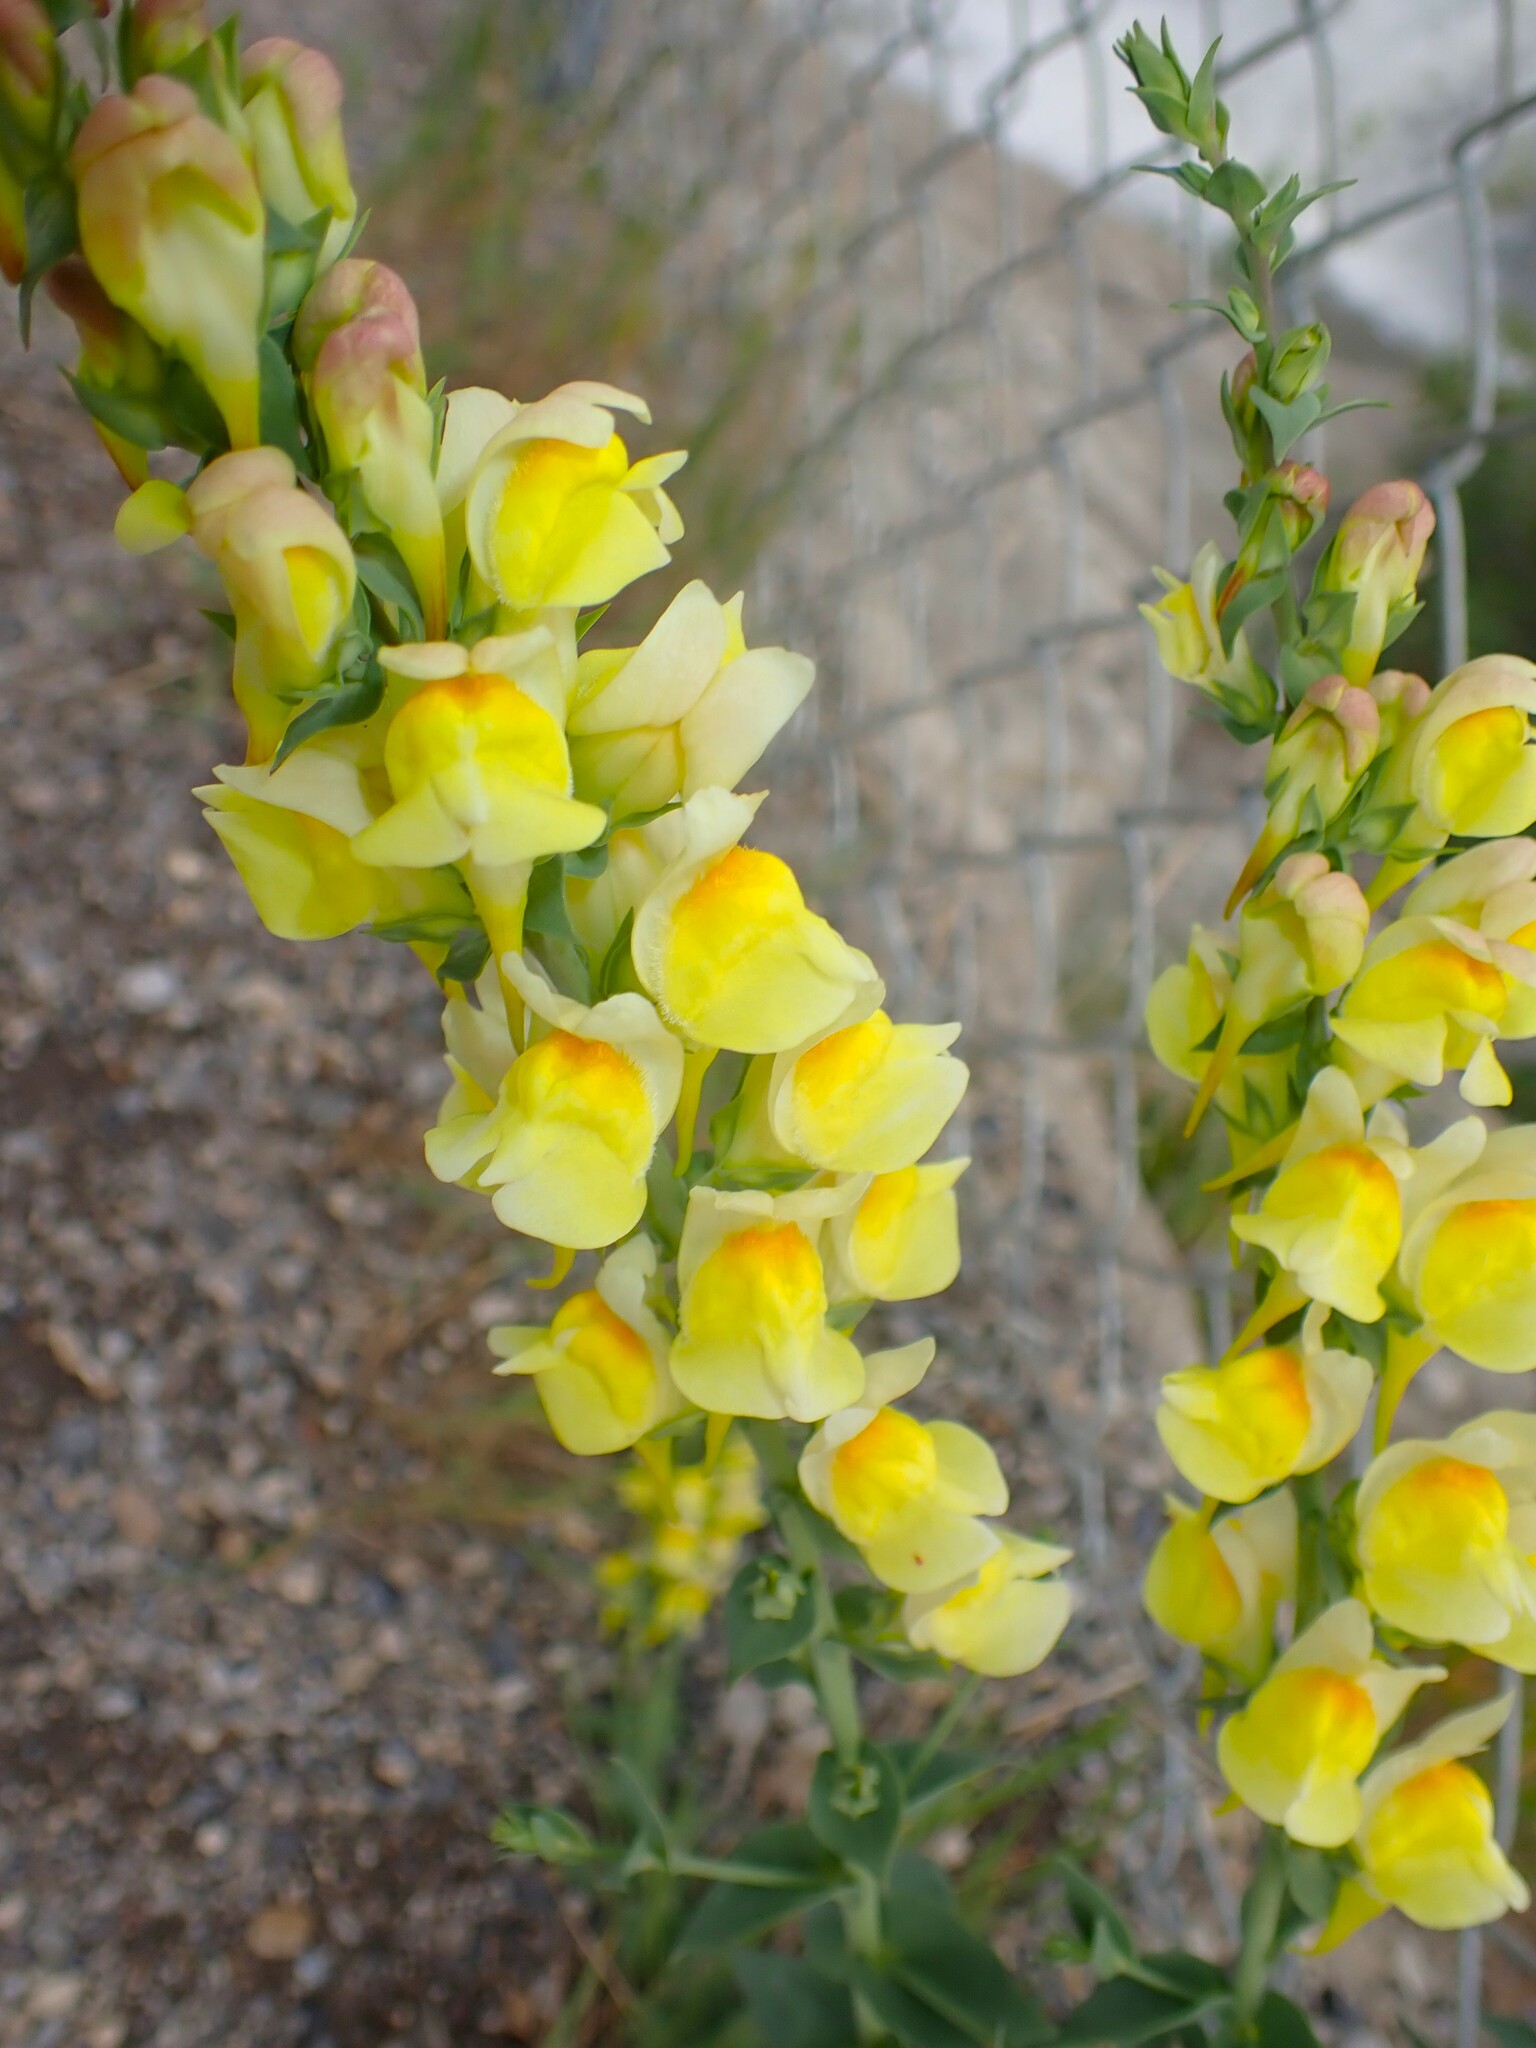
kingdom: Plantae
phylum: Tracheophyta
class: Magnoliopsida
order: Lamiales
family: Plantaginaceae
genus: Linaria
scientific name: Linaria vulgaris
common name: Butter and eggs
